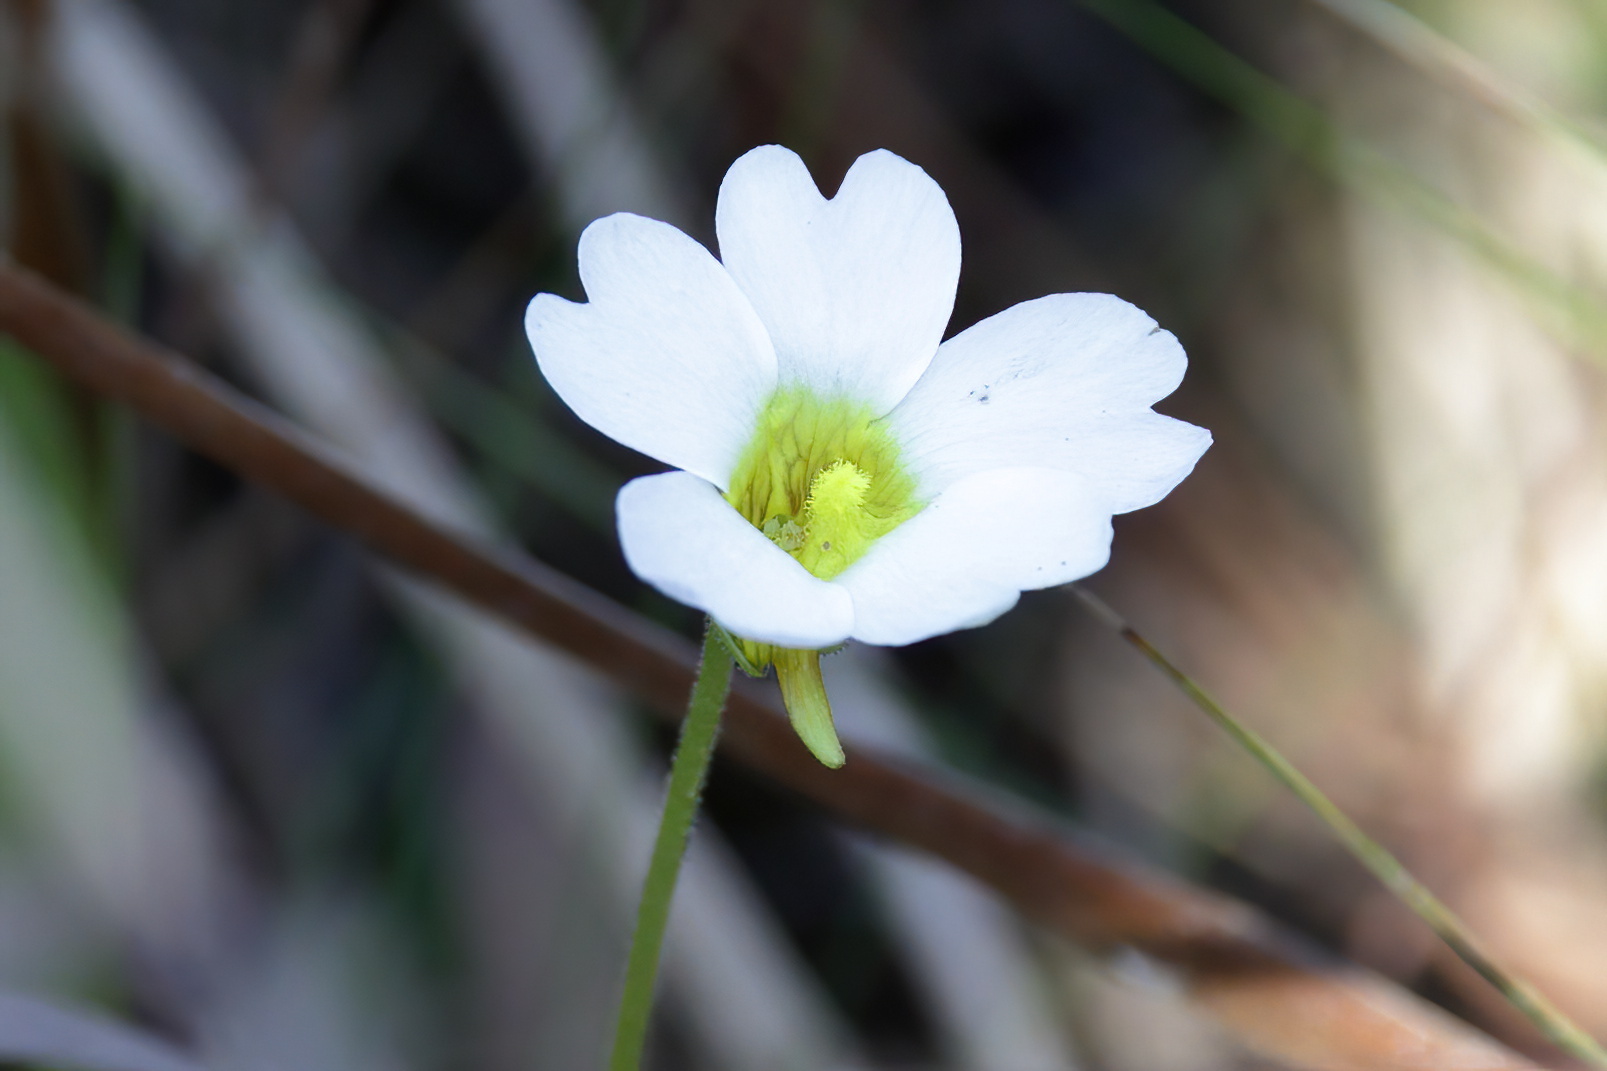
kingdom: Plantae
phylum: Tracheophyta
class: Magnoliopsida
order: Lamiales
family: Lentibulariaceae
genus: Pinguicula
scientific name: Pinguicula primuliflora
